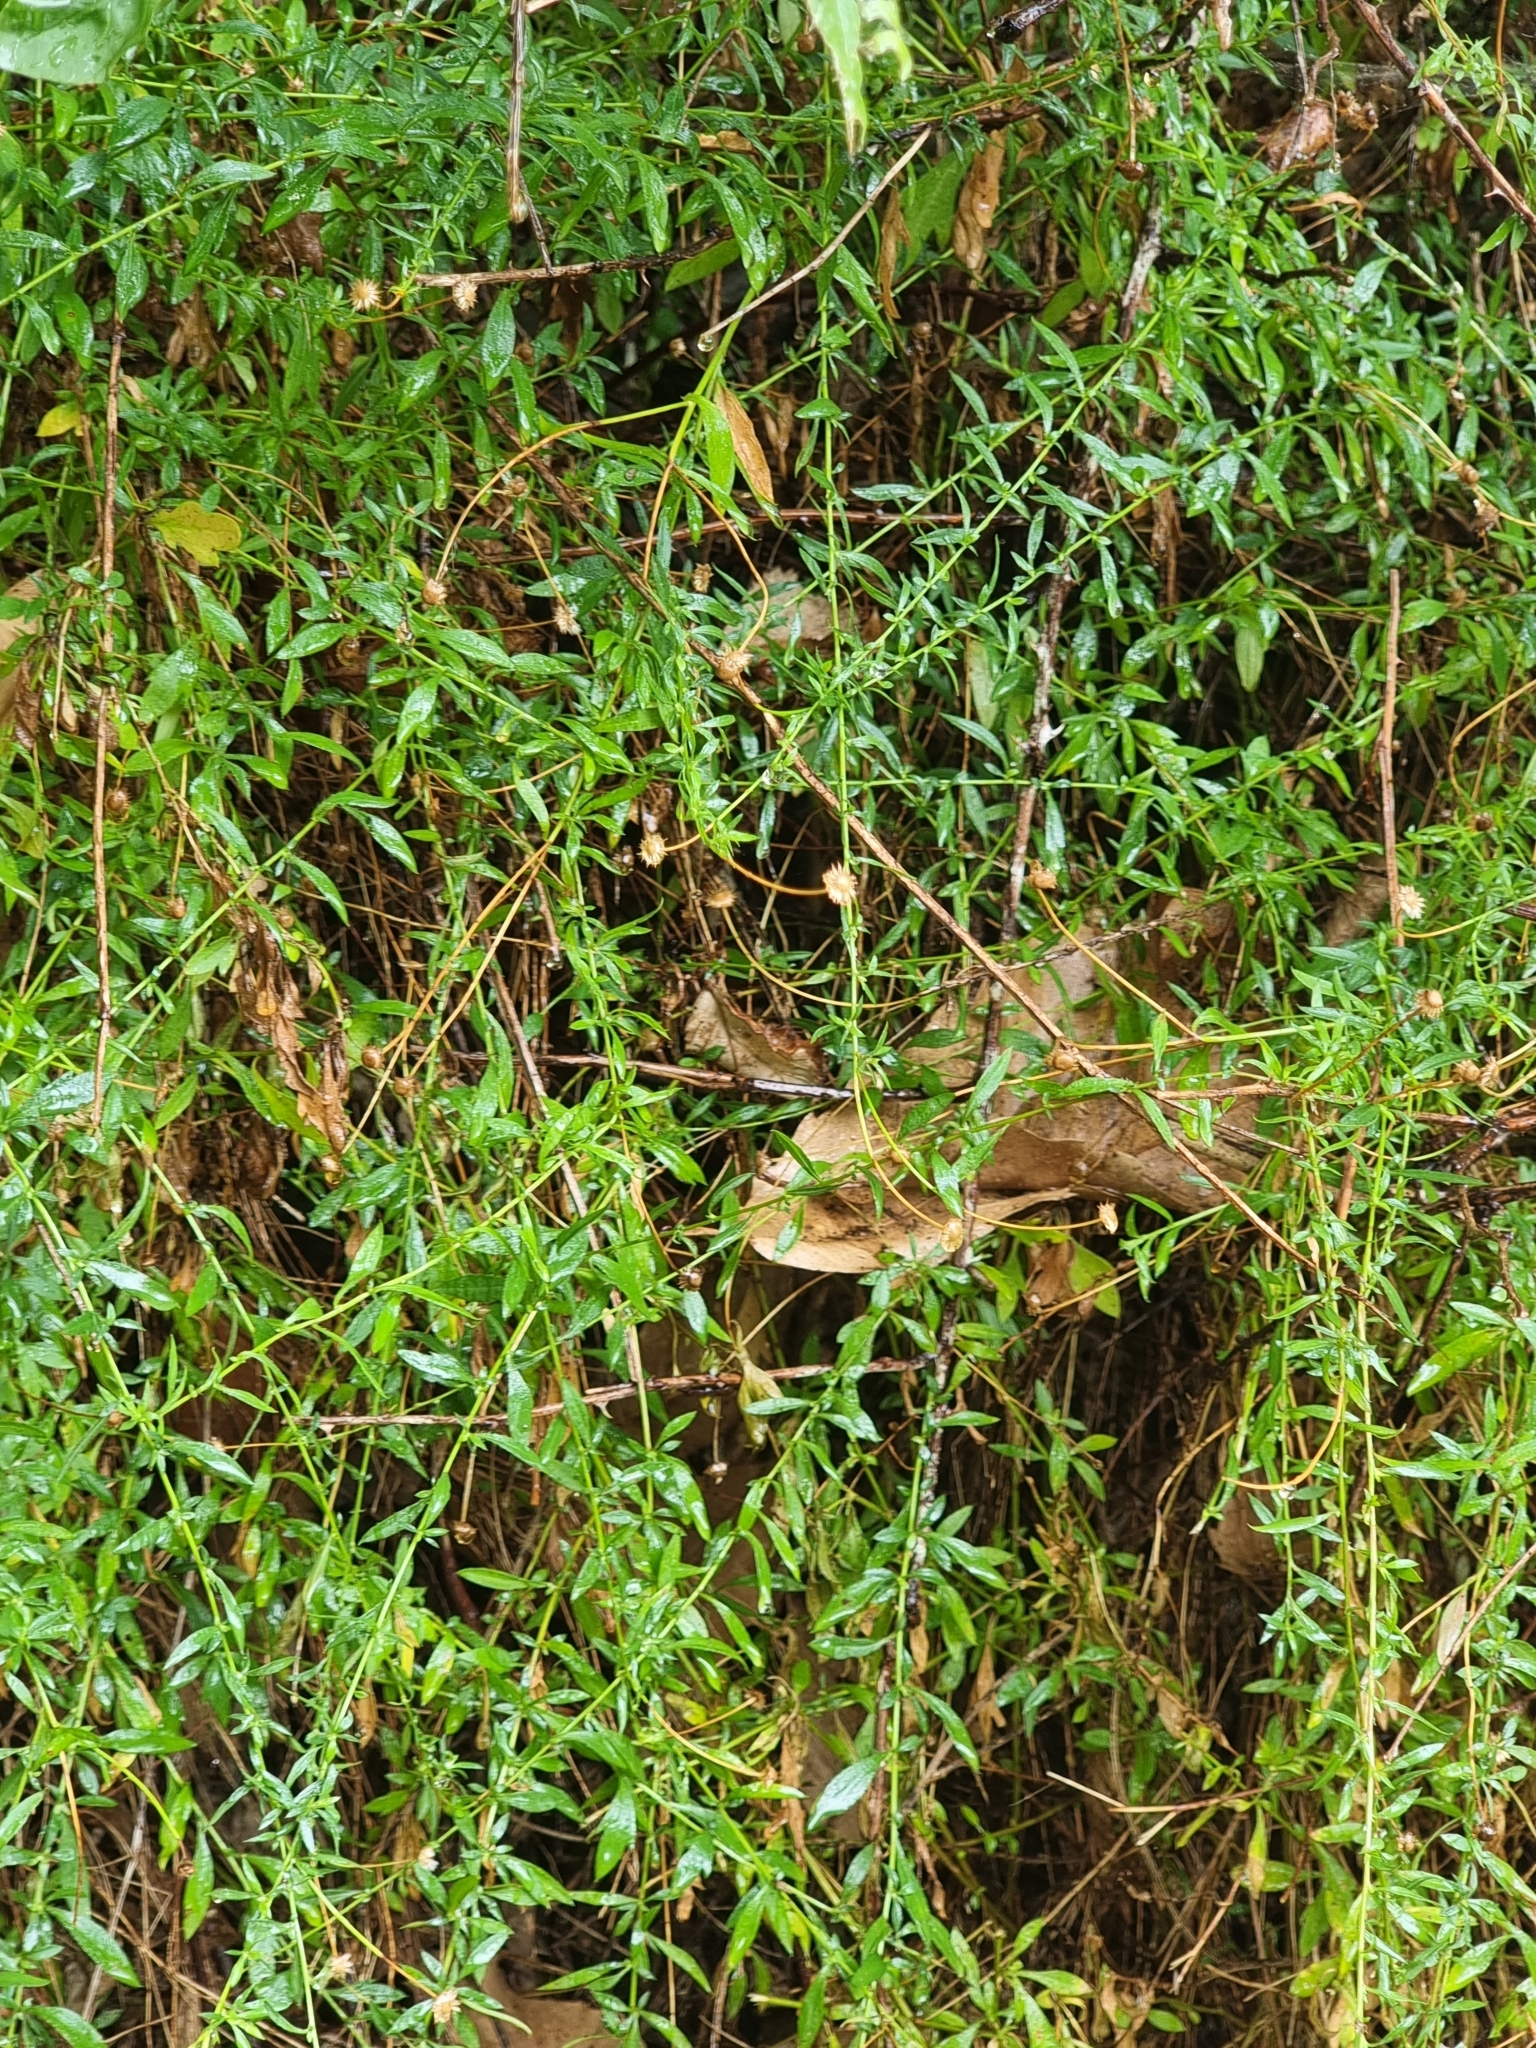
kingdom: Plantae
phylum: Tracheophyta
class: Magnoliopsida
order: Asterales
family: Asteraceae
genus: Erigeron
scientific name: Erigeron karvinskianus
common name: Mexican fleabane
